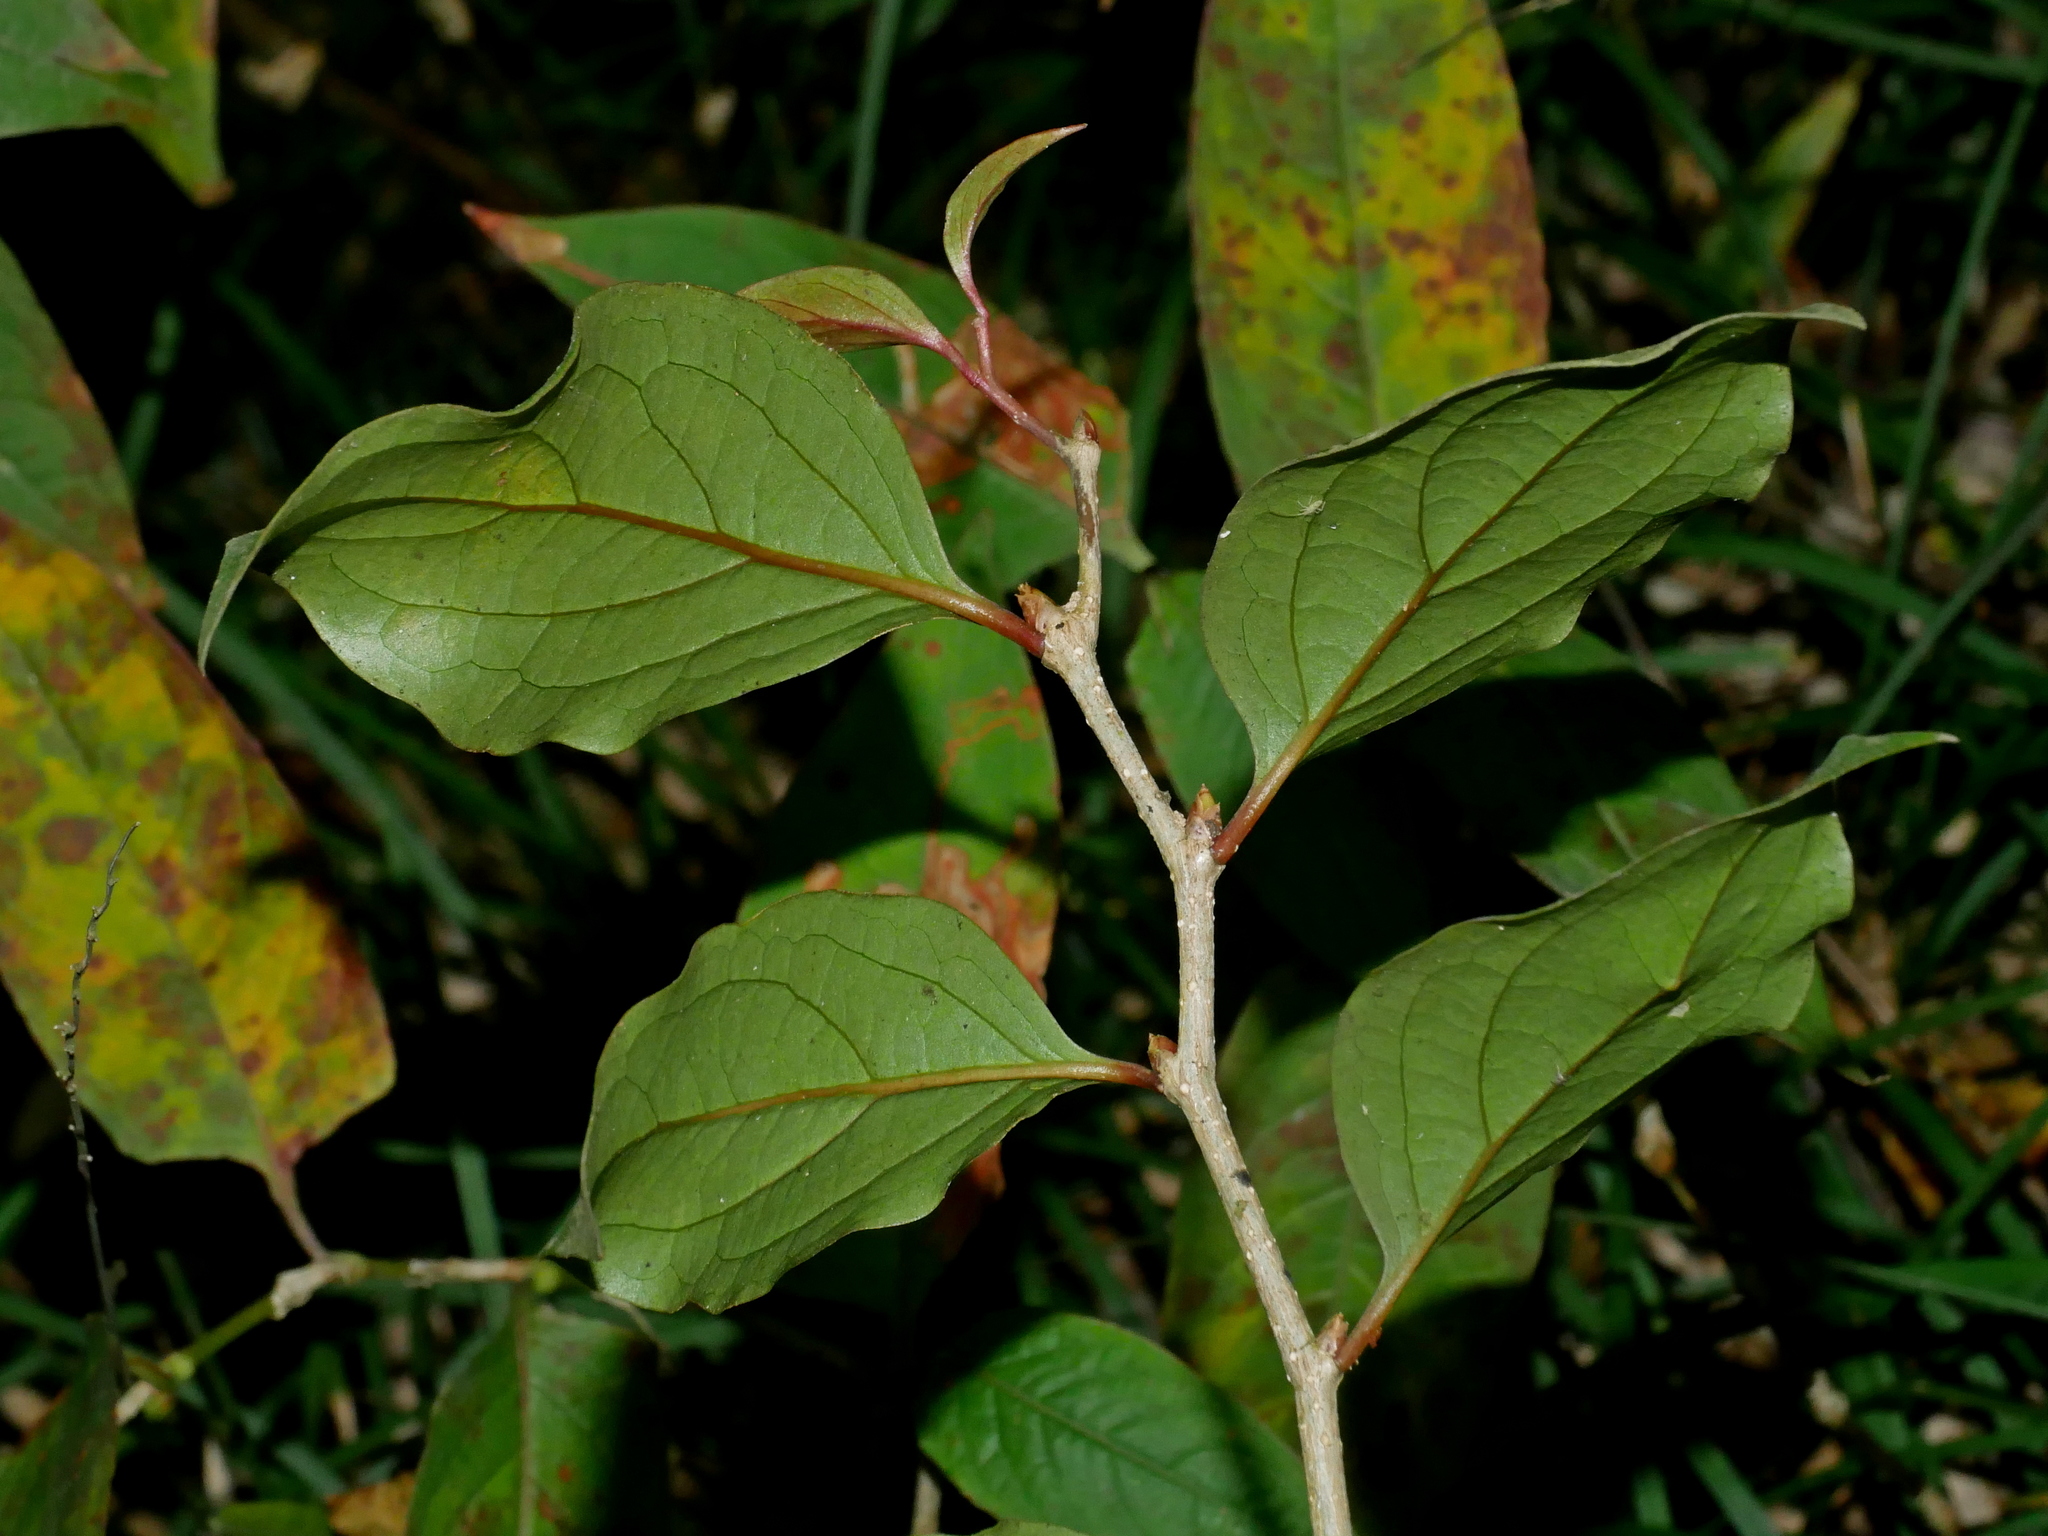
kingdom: Plantae
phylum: Tracheophyta
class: Magnoliopsida
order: Santalales
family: Schoepfiaceae
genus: Schoepfia
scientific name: Schoepfia jasminodora
